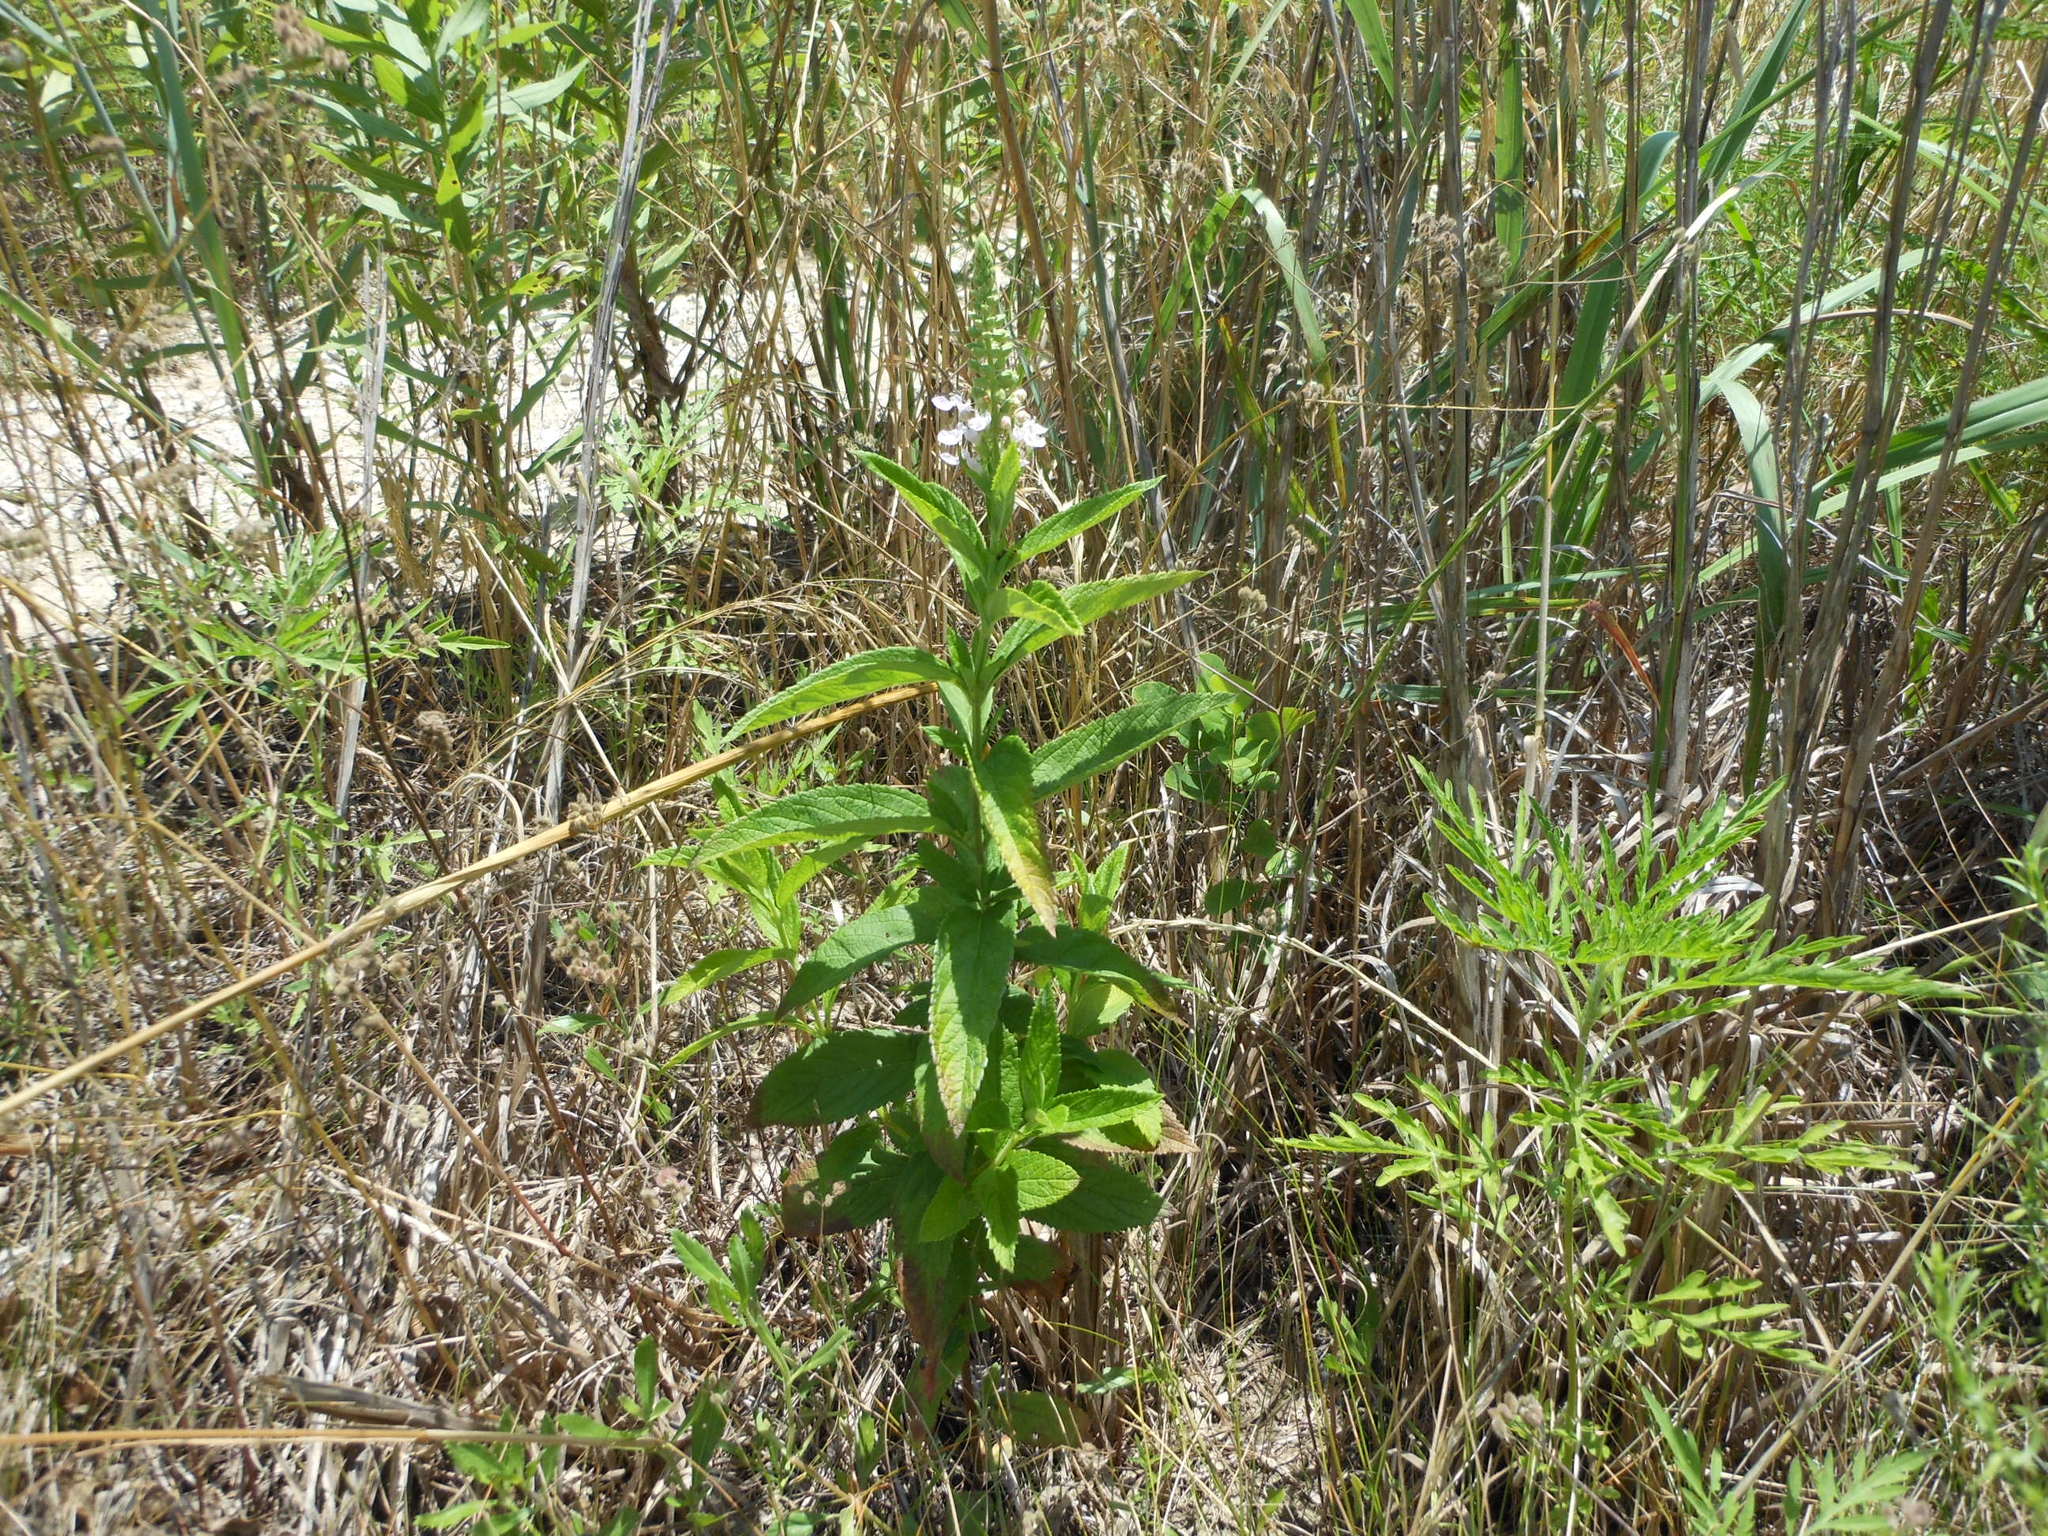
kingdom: Plantae
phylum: Tracheophyta
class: Magnoliopsida
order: Lamiales
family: Lamiaceae
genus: Teucrium
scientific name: Teucrium canadense
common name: American germander
